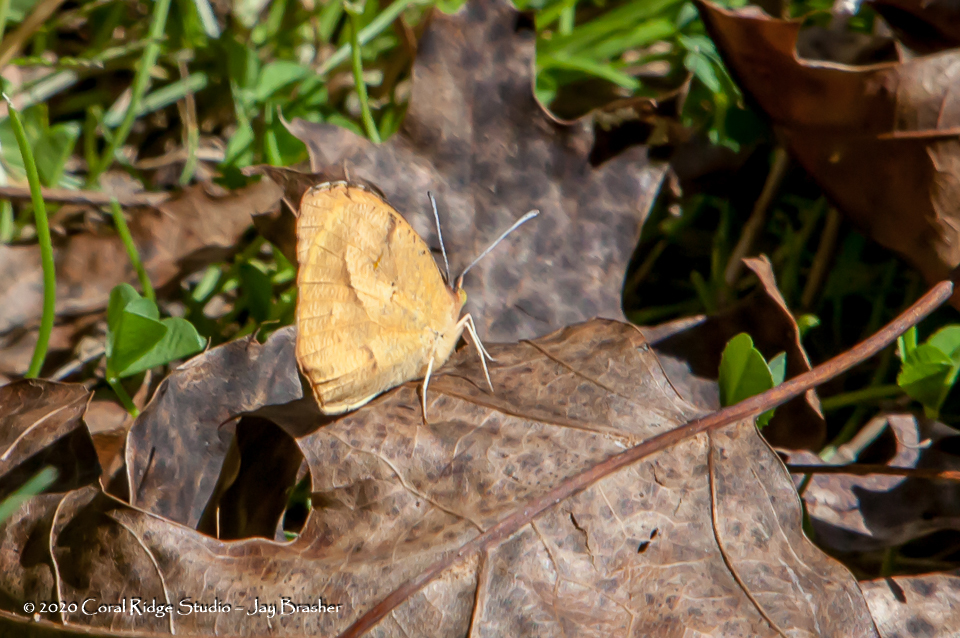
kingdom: Animalia
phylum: Arthropoda
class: Insecta
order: Lepidoptera
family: Pieridae
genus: Abaeis
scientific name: Abaeis nicippe
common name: Sleepy orange
